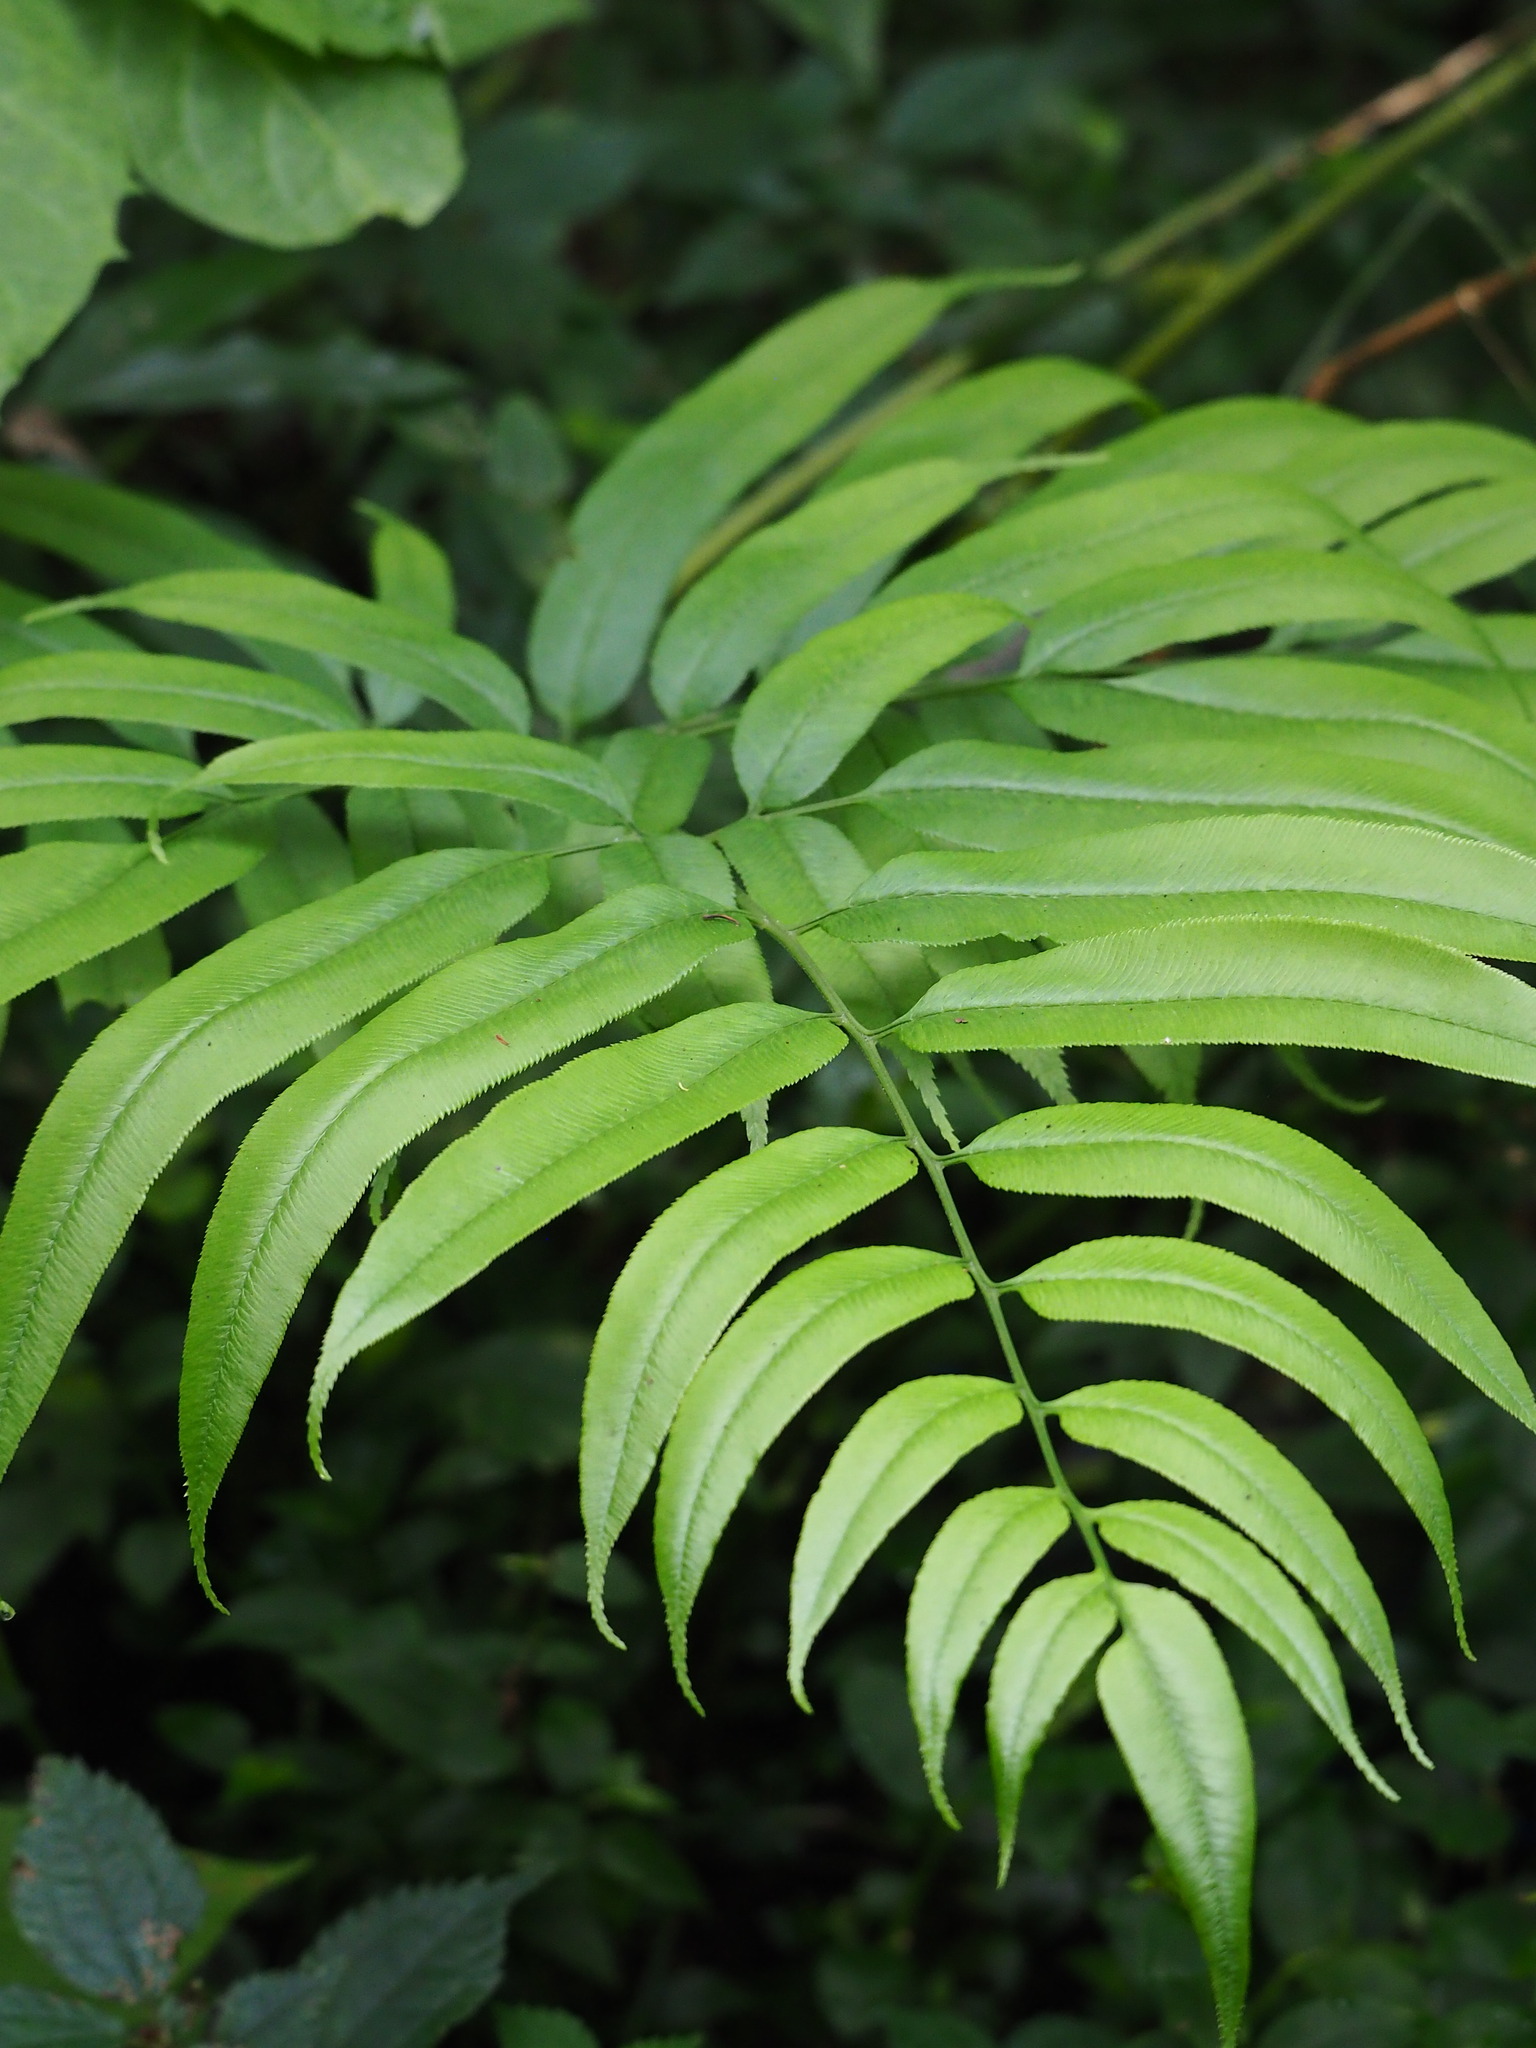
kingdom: Plantae
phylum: Tracheophyta
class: Polypodiopsida
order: Polypodiales
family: Pteridaceae
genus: Coniogramme
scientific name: Coniogramme intermedia
